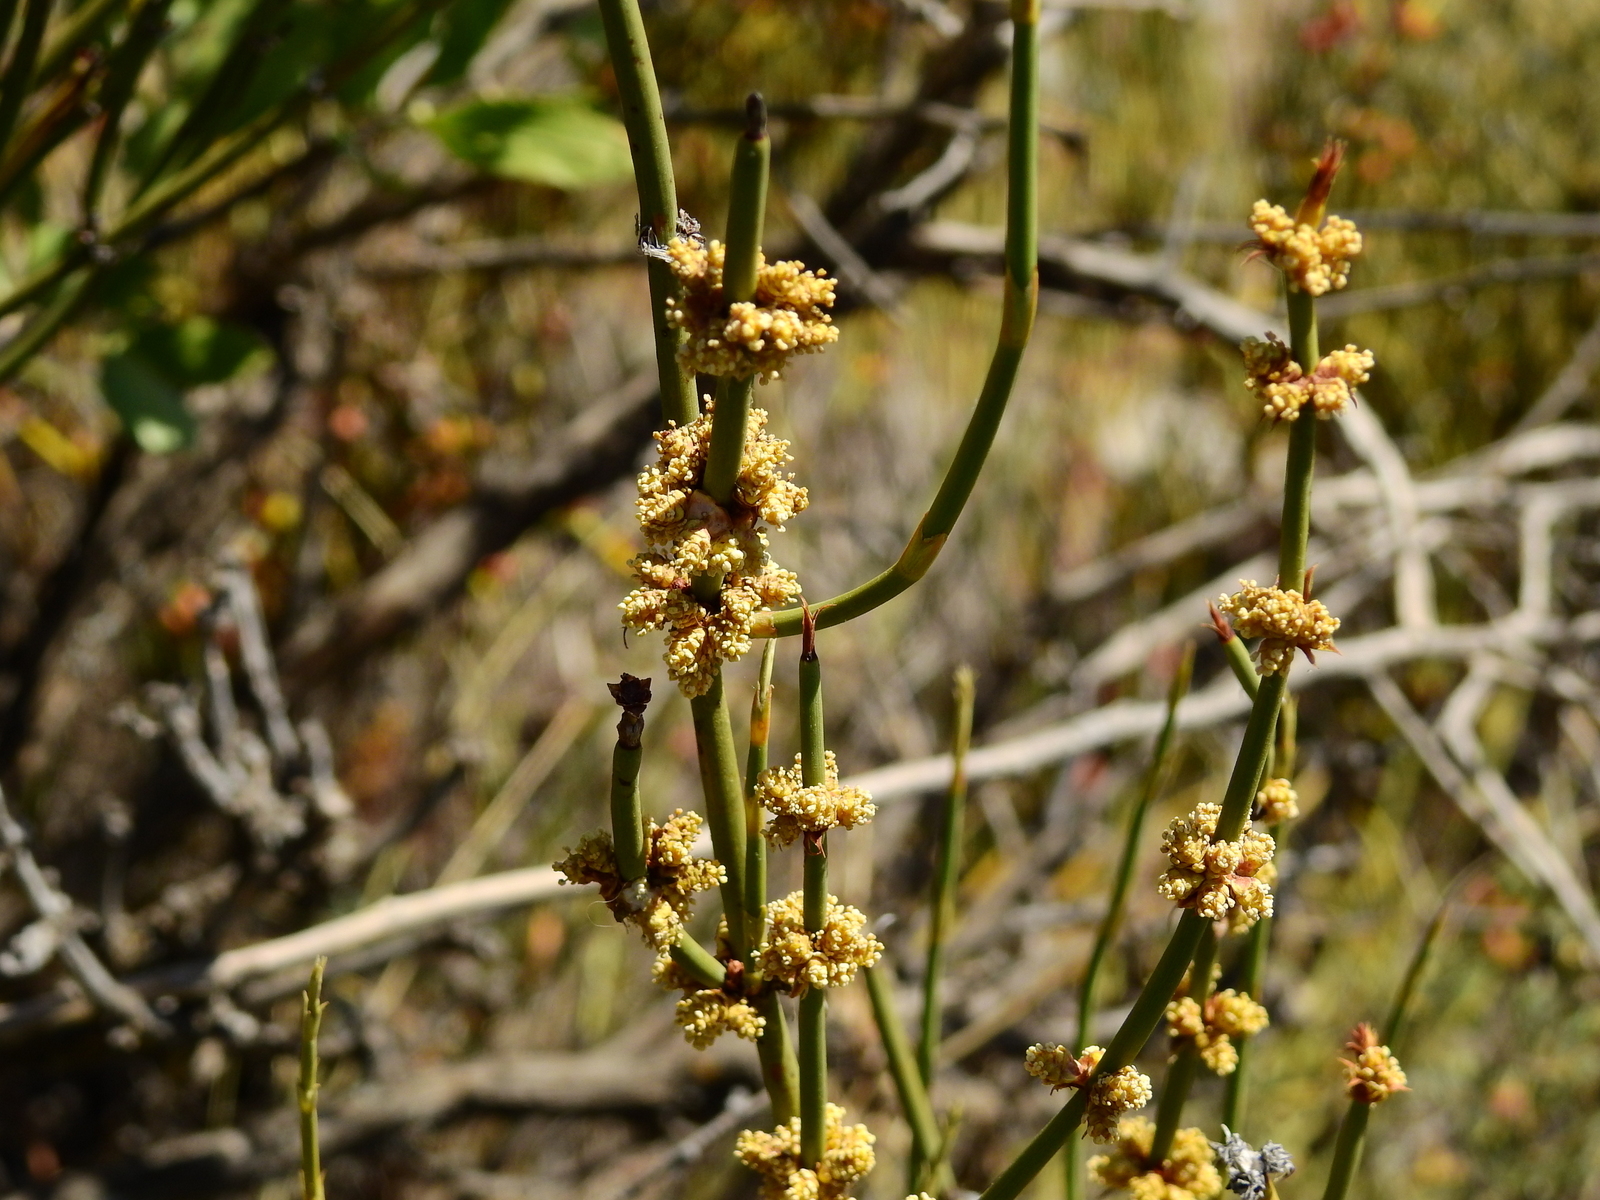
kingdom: Plantae
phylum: Tracheophyta
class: Gnetopsida
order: Ephedrales
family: Ephedraceae
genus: Ephedra
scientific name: Ephedra ochreata
